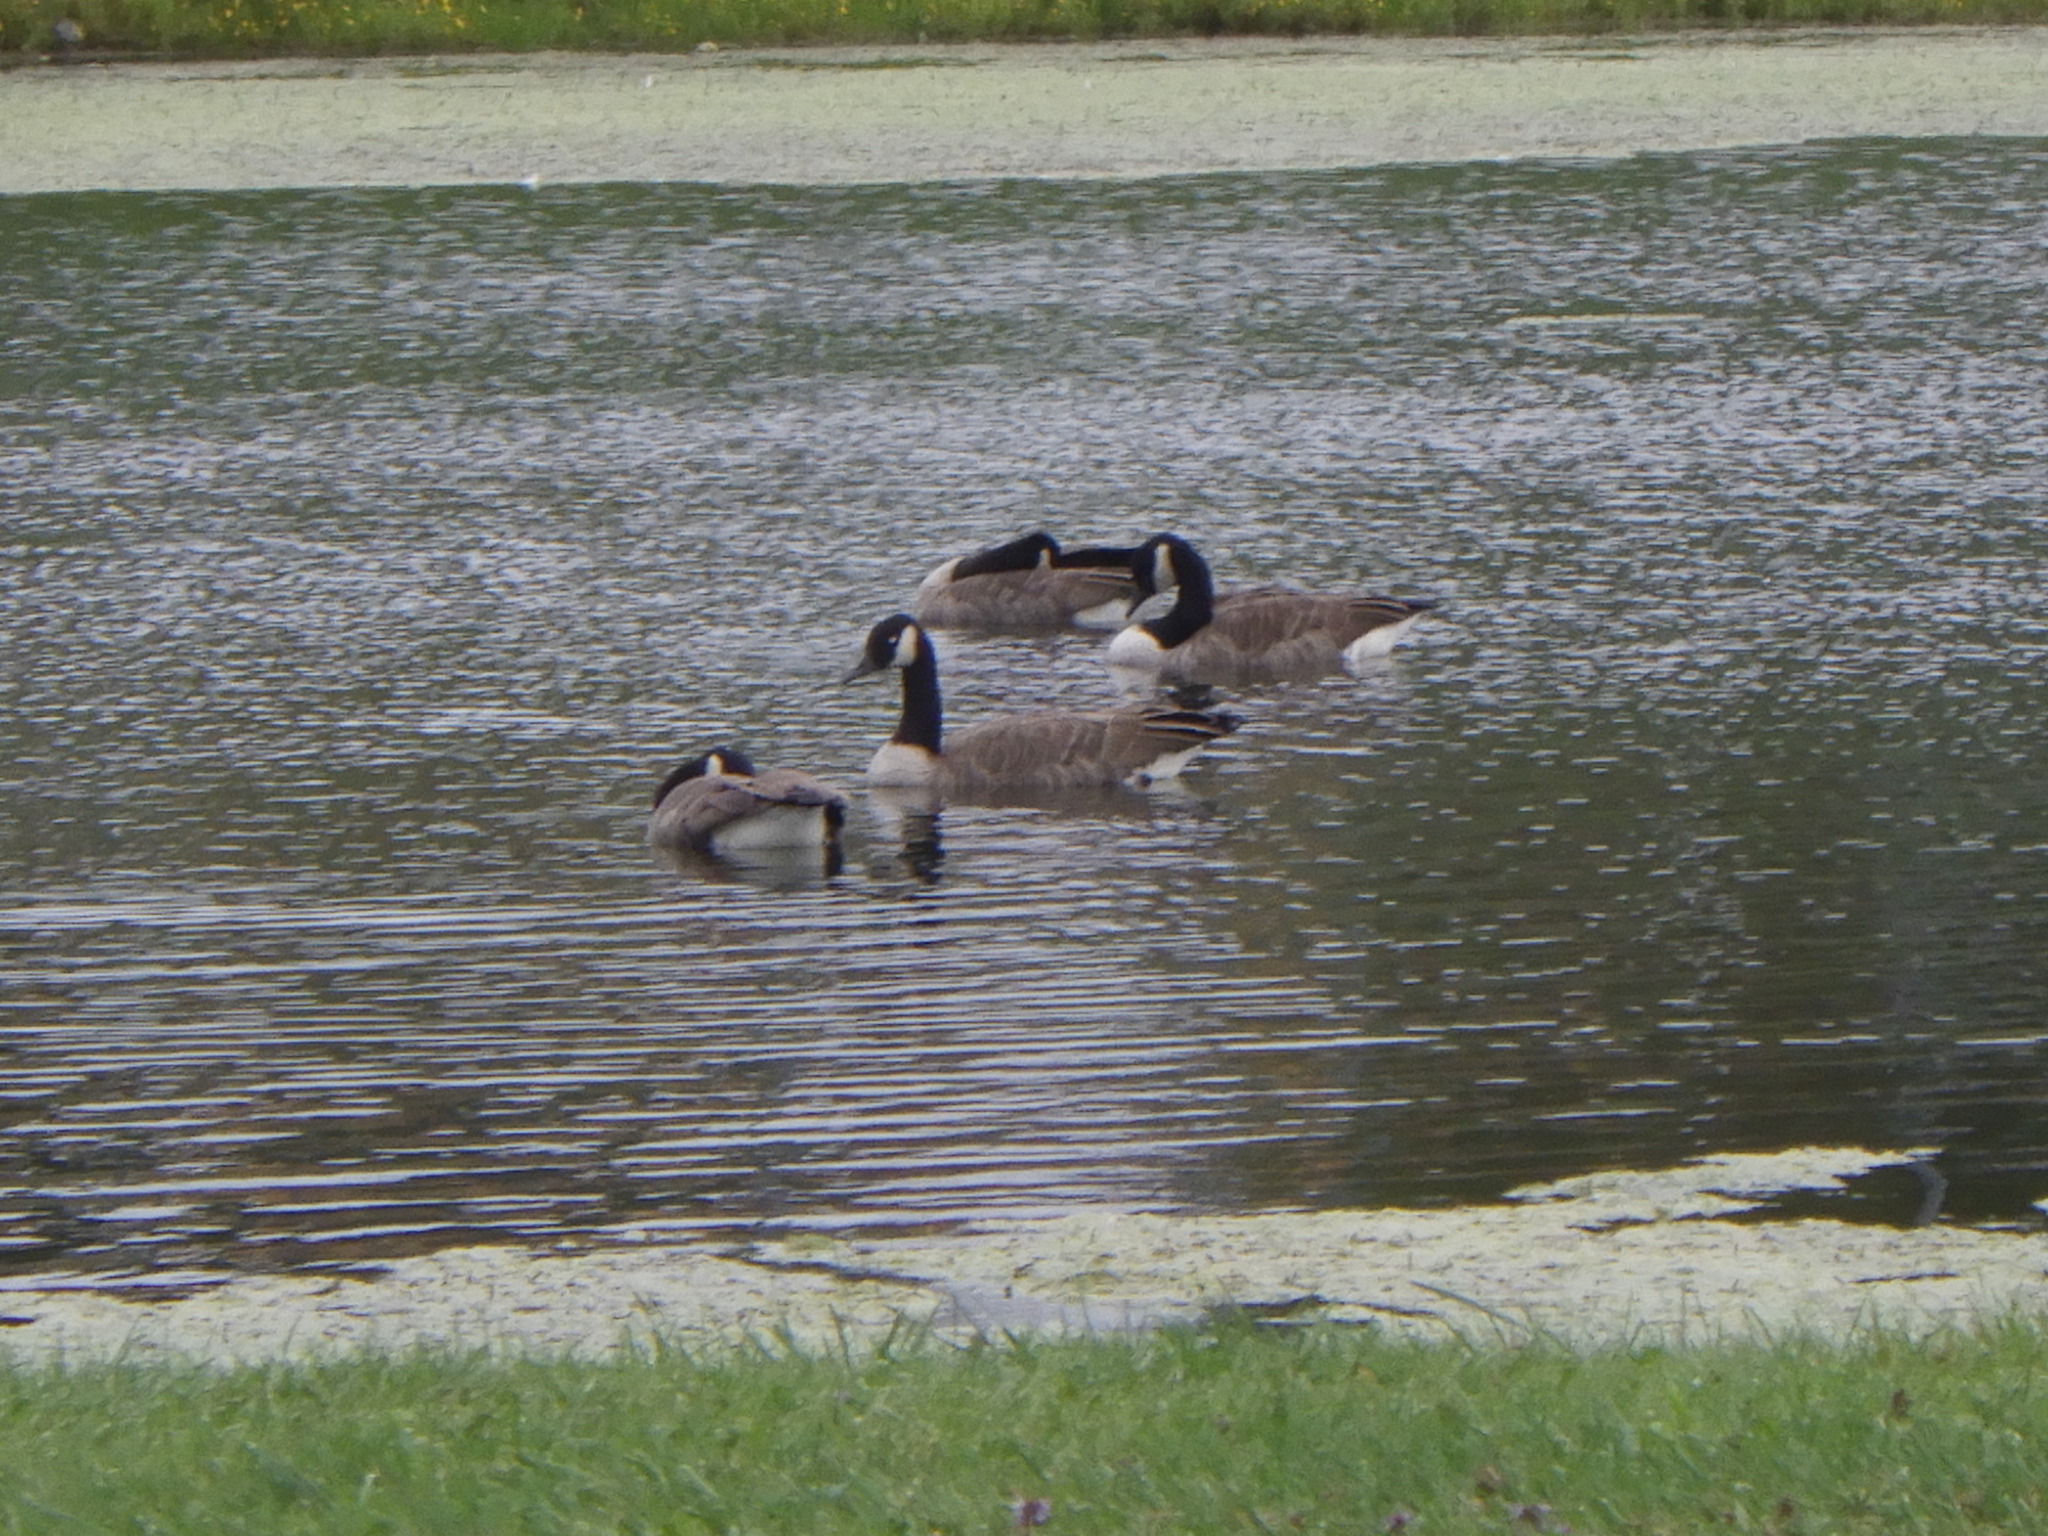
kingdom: Animalia
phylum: Chordata
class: Aves
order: Anseriformes
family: Anatidae
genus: Branta
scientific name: Branta canadensis
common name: Canada goose
